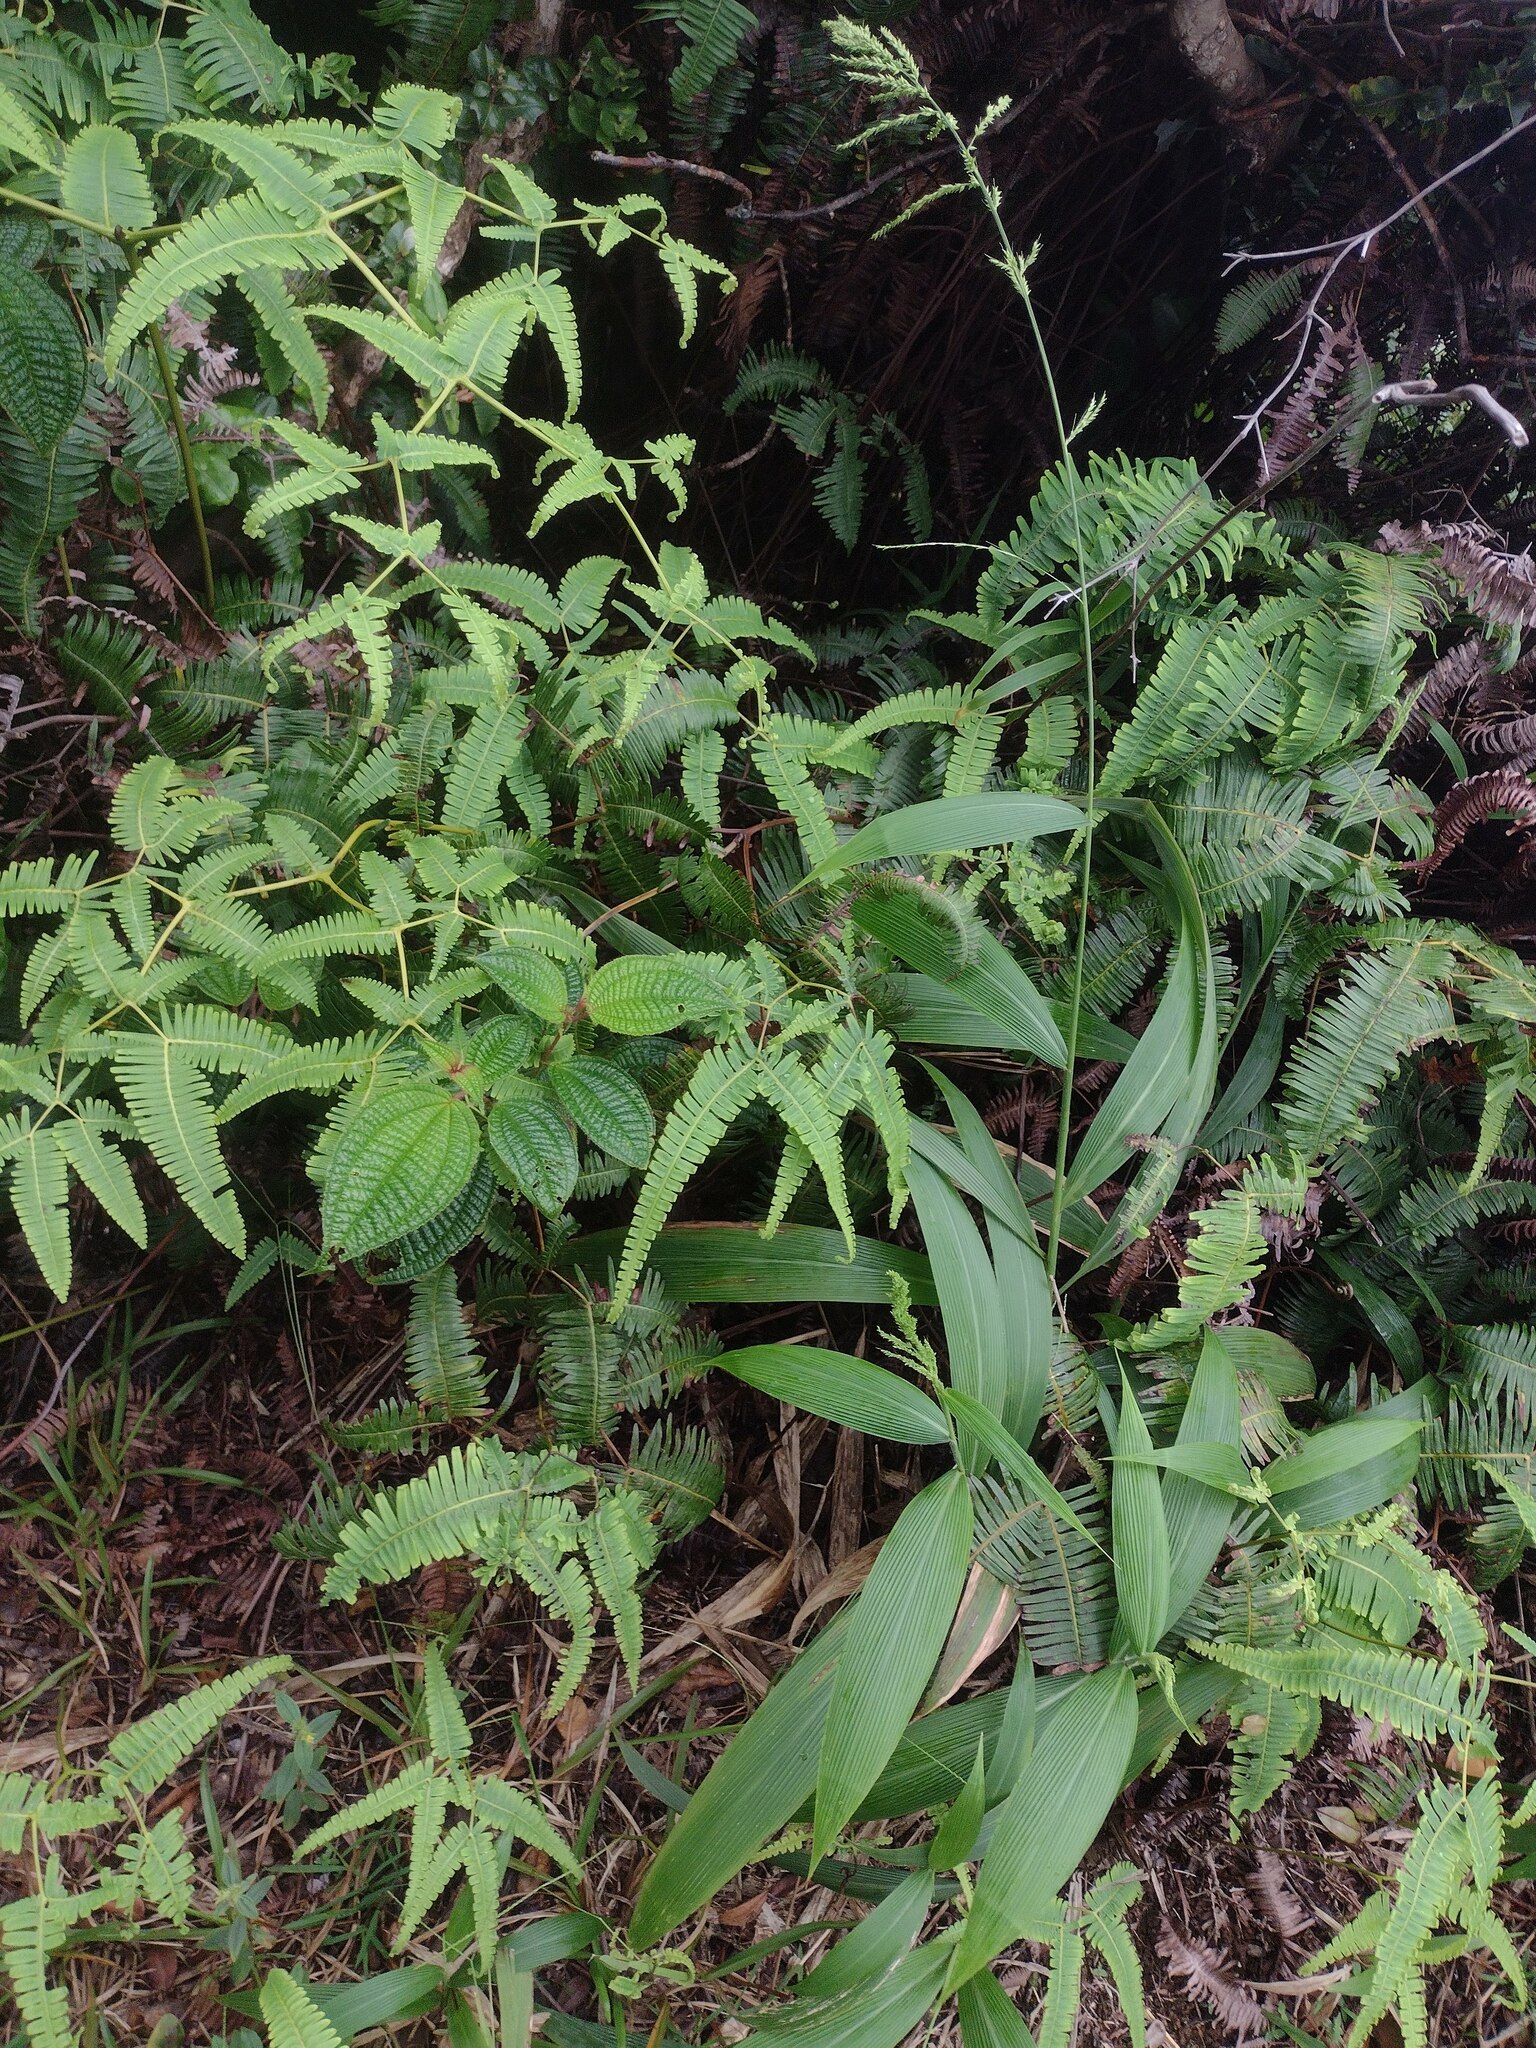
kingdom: Plantae
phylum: Tracheophyta
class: Liliopsida
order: Poales
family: Poaceae
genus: Setaria
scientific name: Setaria palmifolia
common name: Broadleaved bristlegrass
